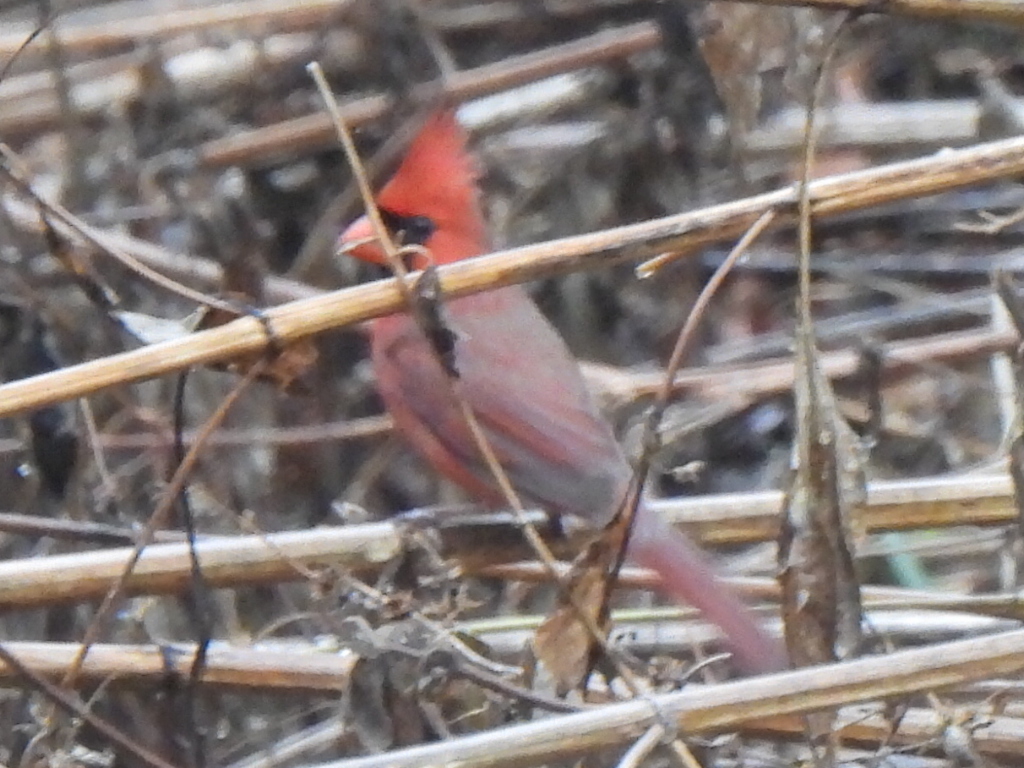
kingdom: Animalia
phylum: Chordata
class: Aves
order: Passeriformes
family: Cardinalidae
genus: Cardinalis
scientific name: Cardinalis cardinalis
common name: Northern cardinal
